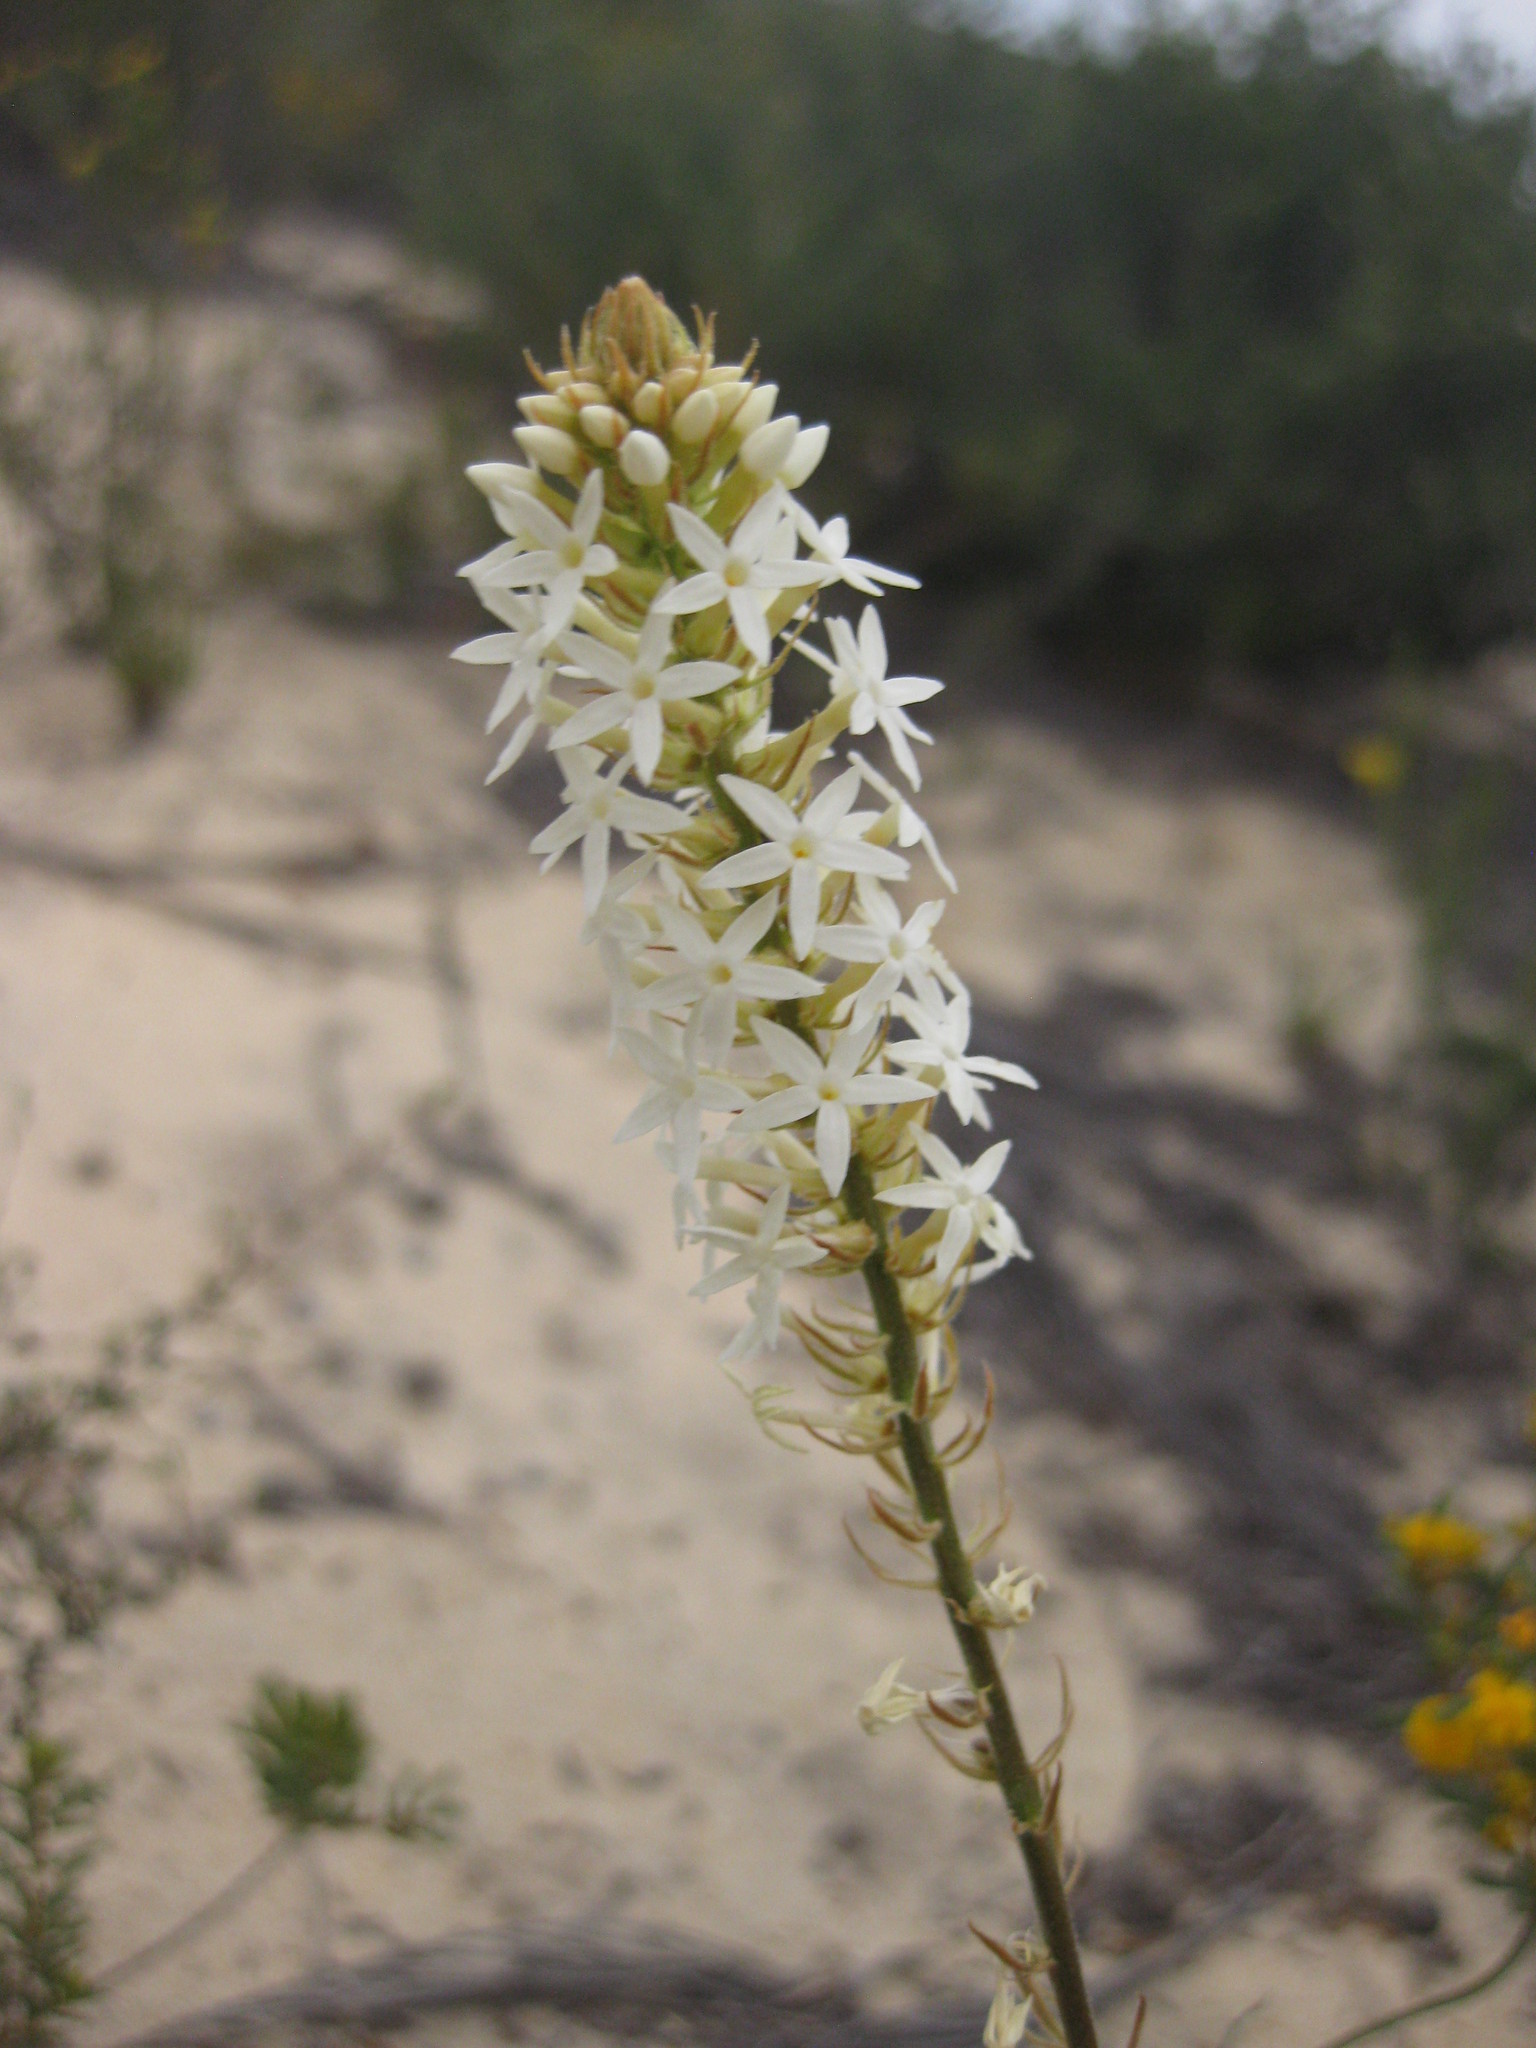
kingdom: Plantae
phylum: Tracheophyta
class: Magnoliopsida
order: Celastrales
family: Celastraceae
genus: Stackhousia
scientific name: Stackhousia monogyna
